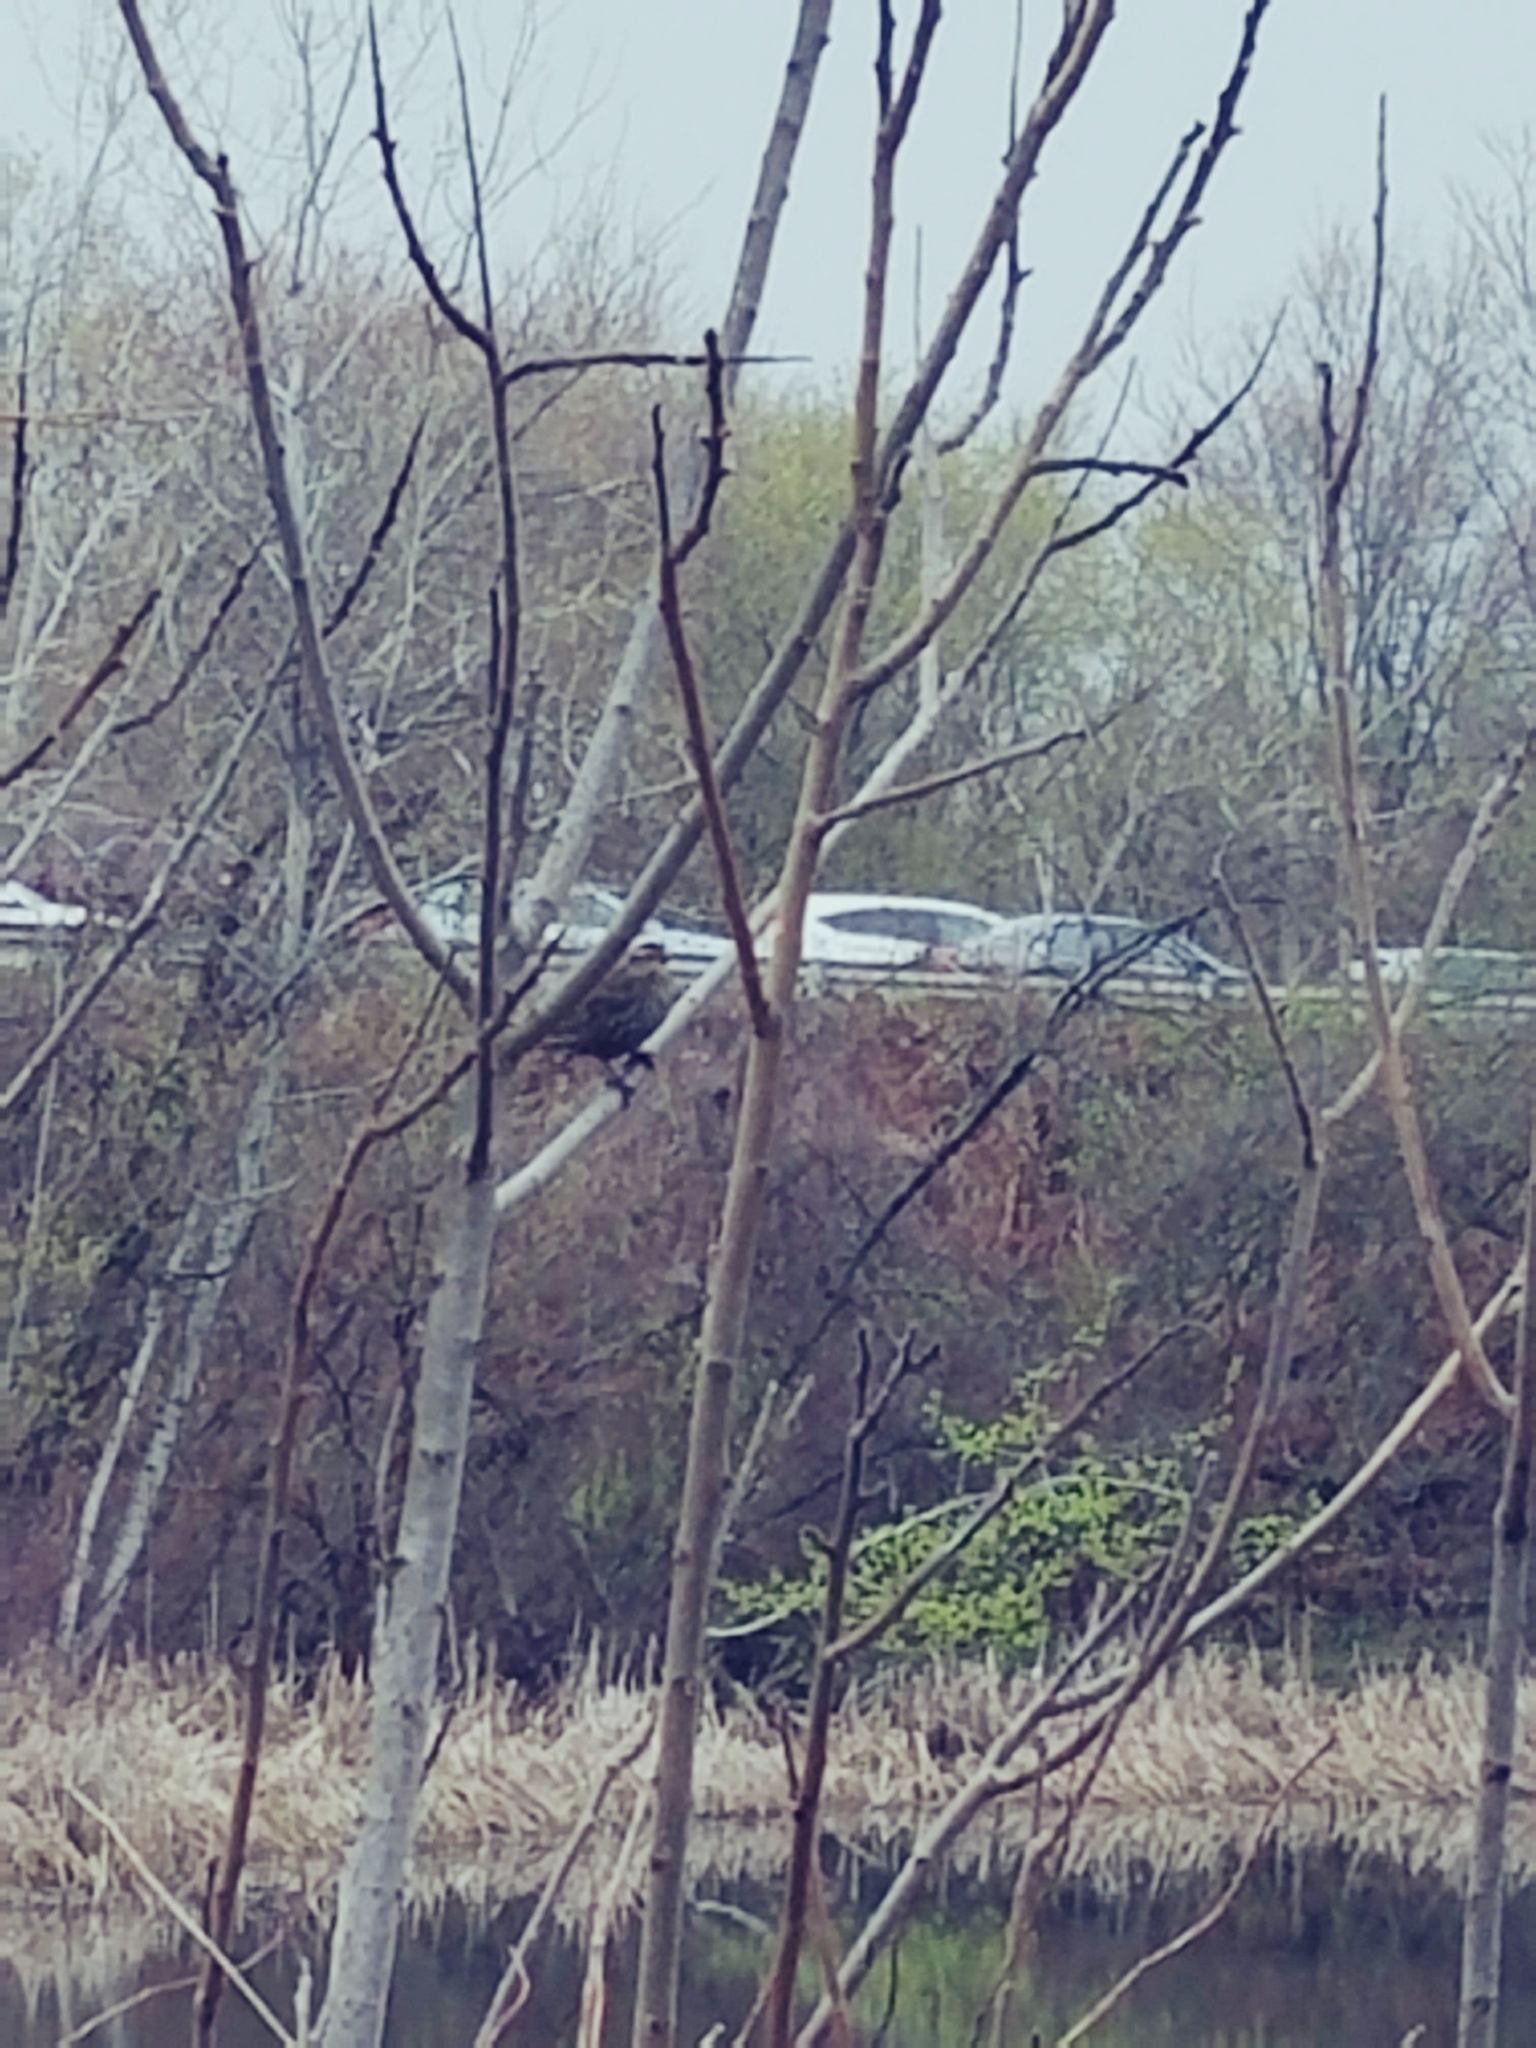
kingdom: Animalia
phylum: Chordata
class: Aves
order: Passeriformes
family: Icteridae
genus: Agelaius
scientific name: Agelaius phoeniceus
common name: Red-winged blackbird
